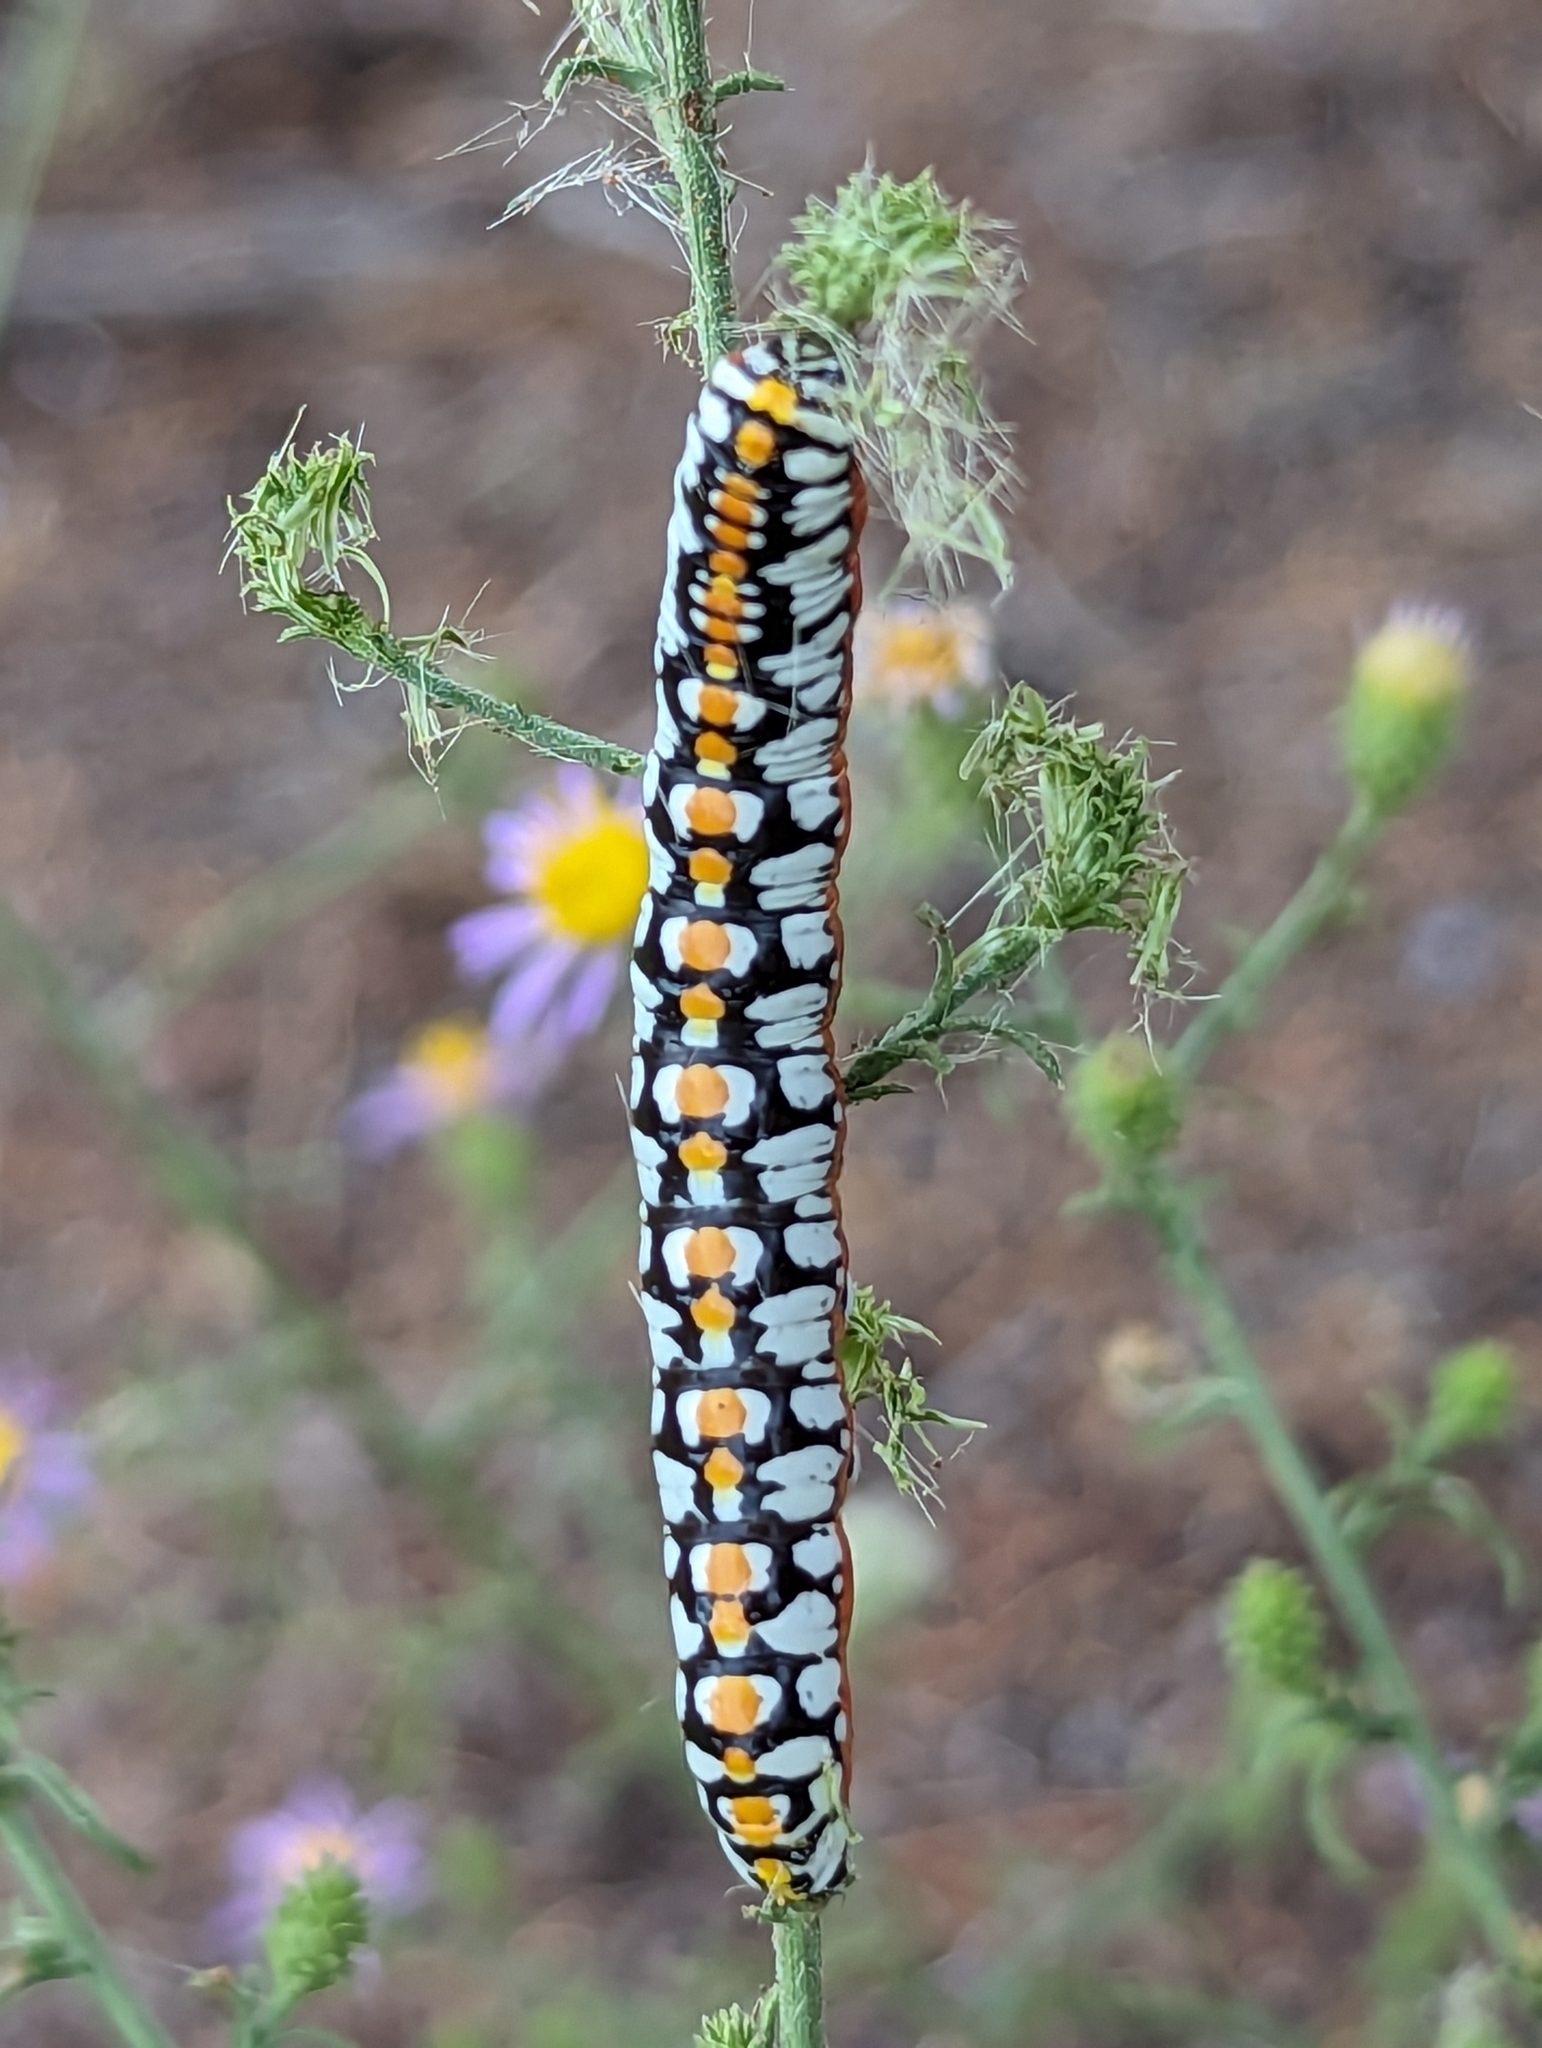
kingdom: Animalia
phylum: Arthropoda
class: Insecta
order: Lepidoptera
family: Noctuidae
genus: Cucullia
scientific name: Cucullia dorsalis
